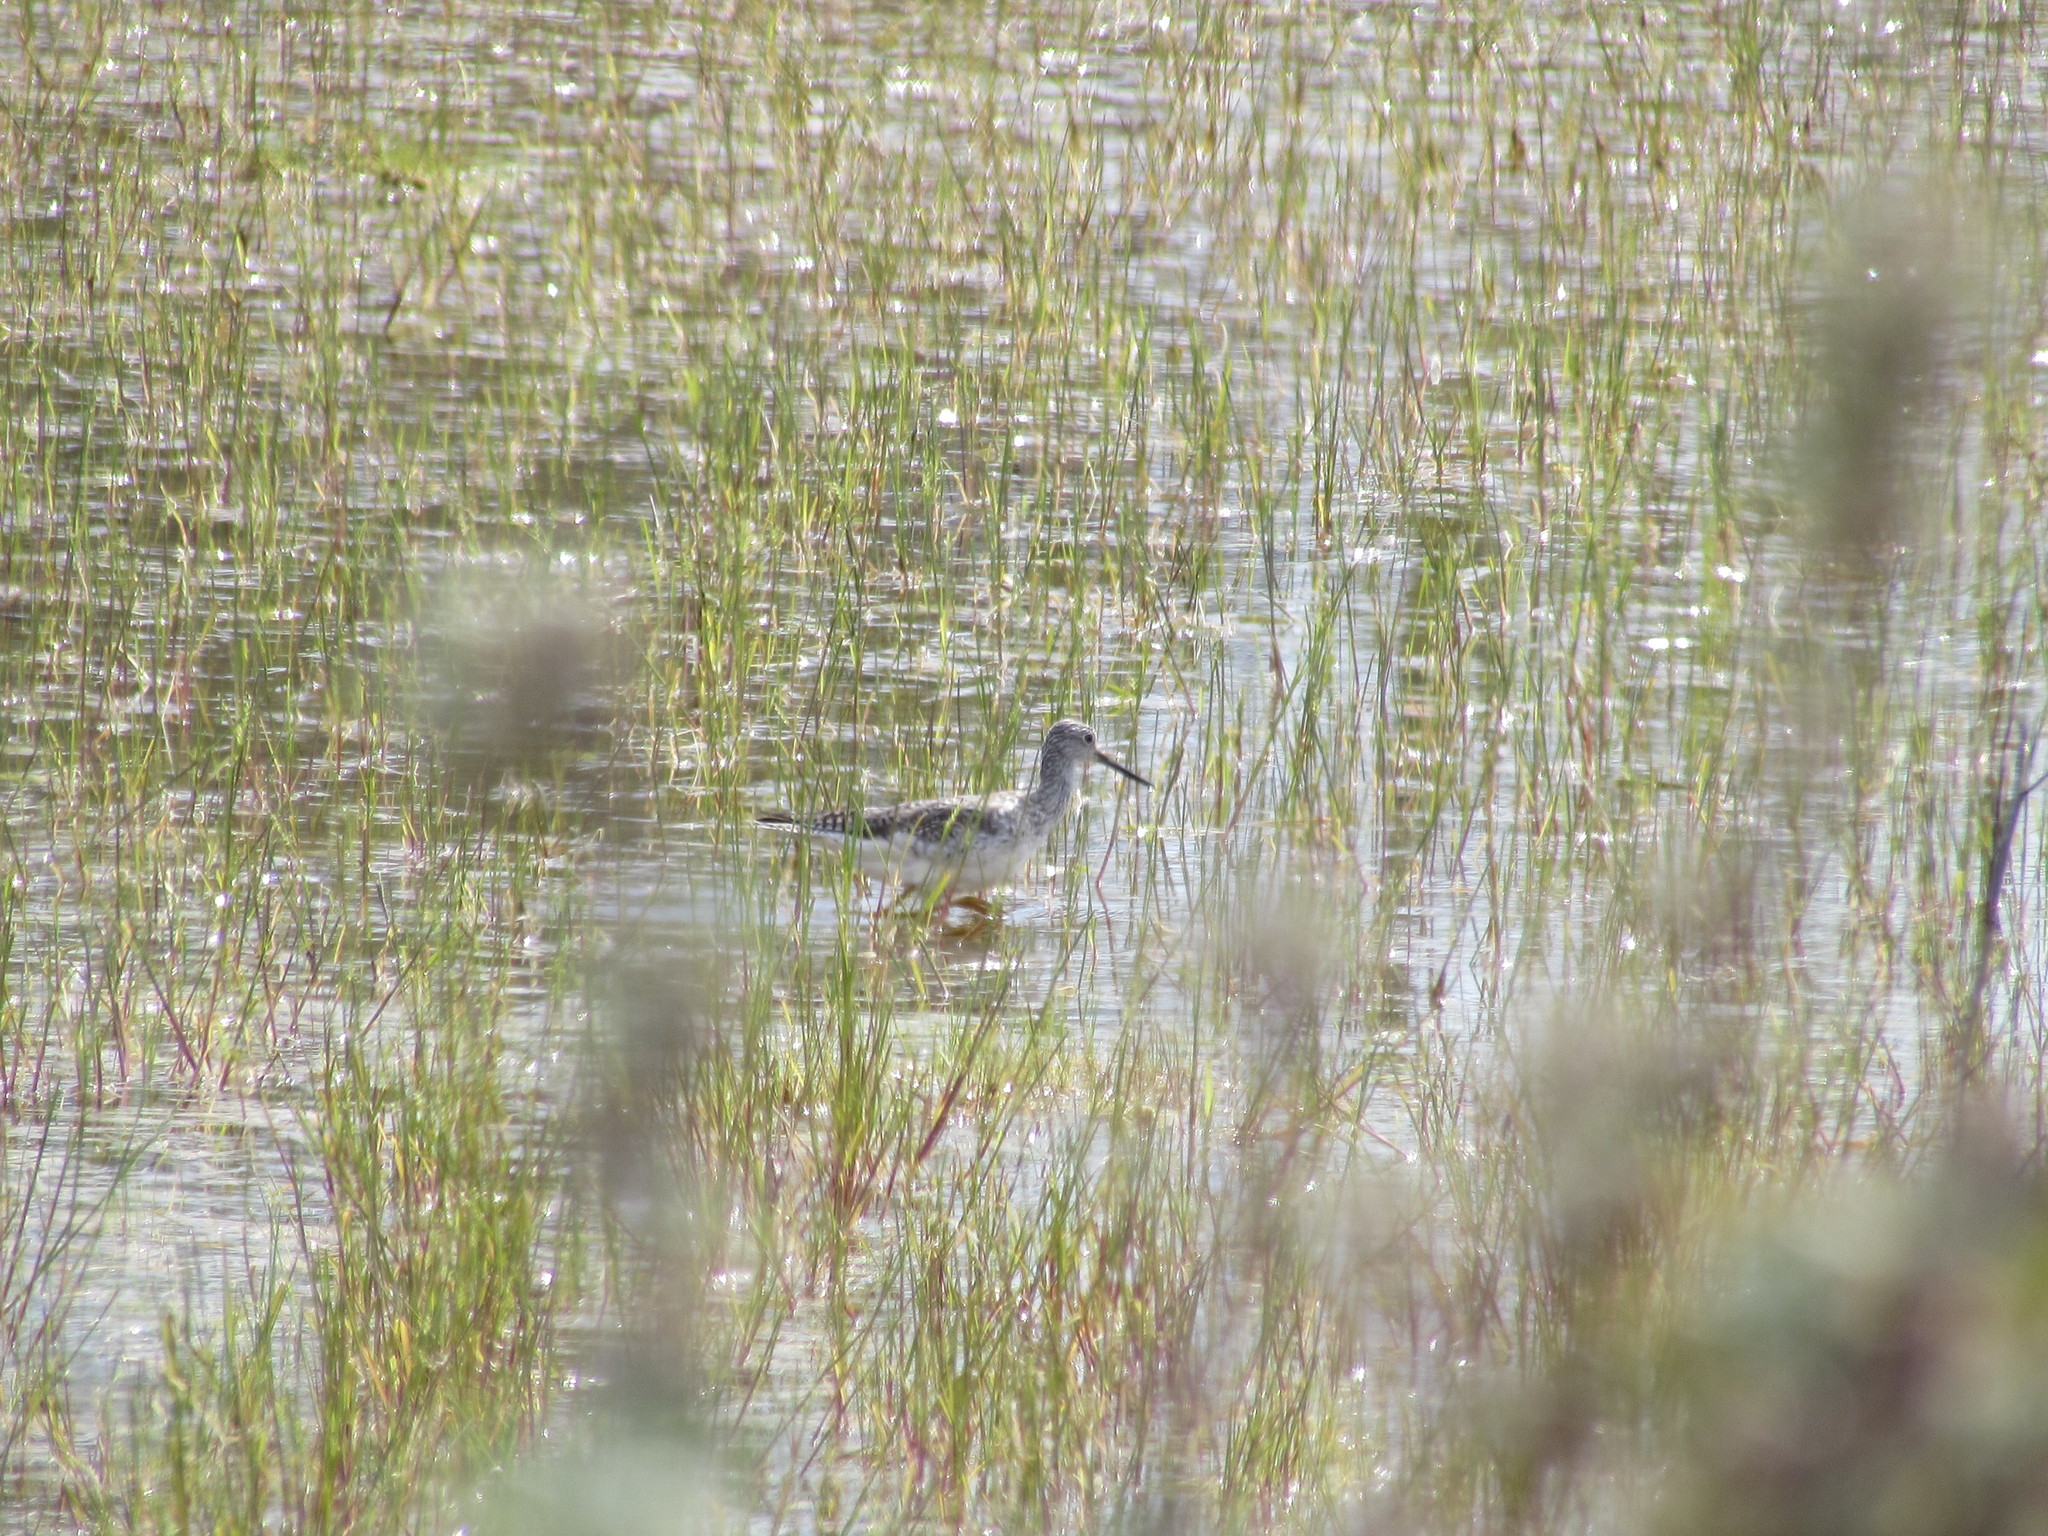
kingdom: Animalia
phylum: Chordata
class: Aves
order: Charadriiformes
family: Scolopacidae
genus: Tringa
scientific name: Tringa melanoleuca
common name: Greater yellowlegs
